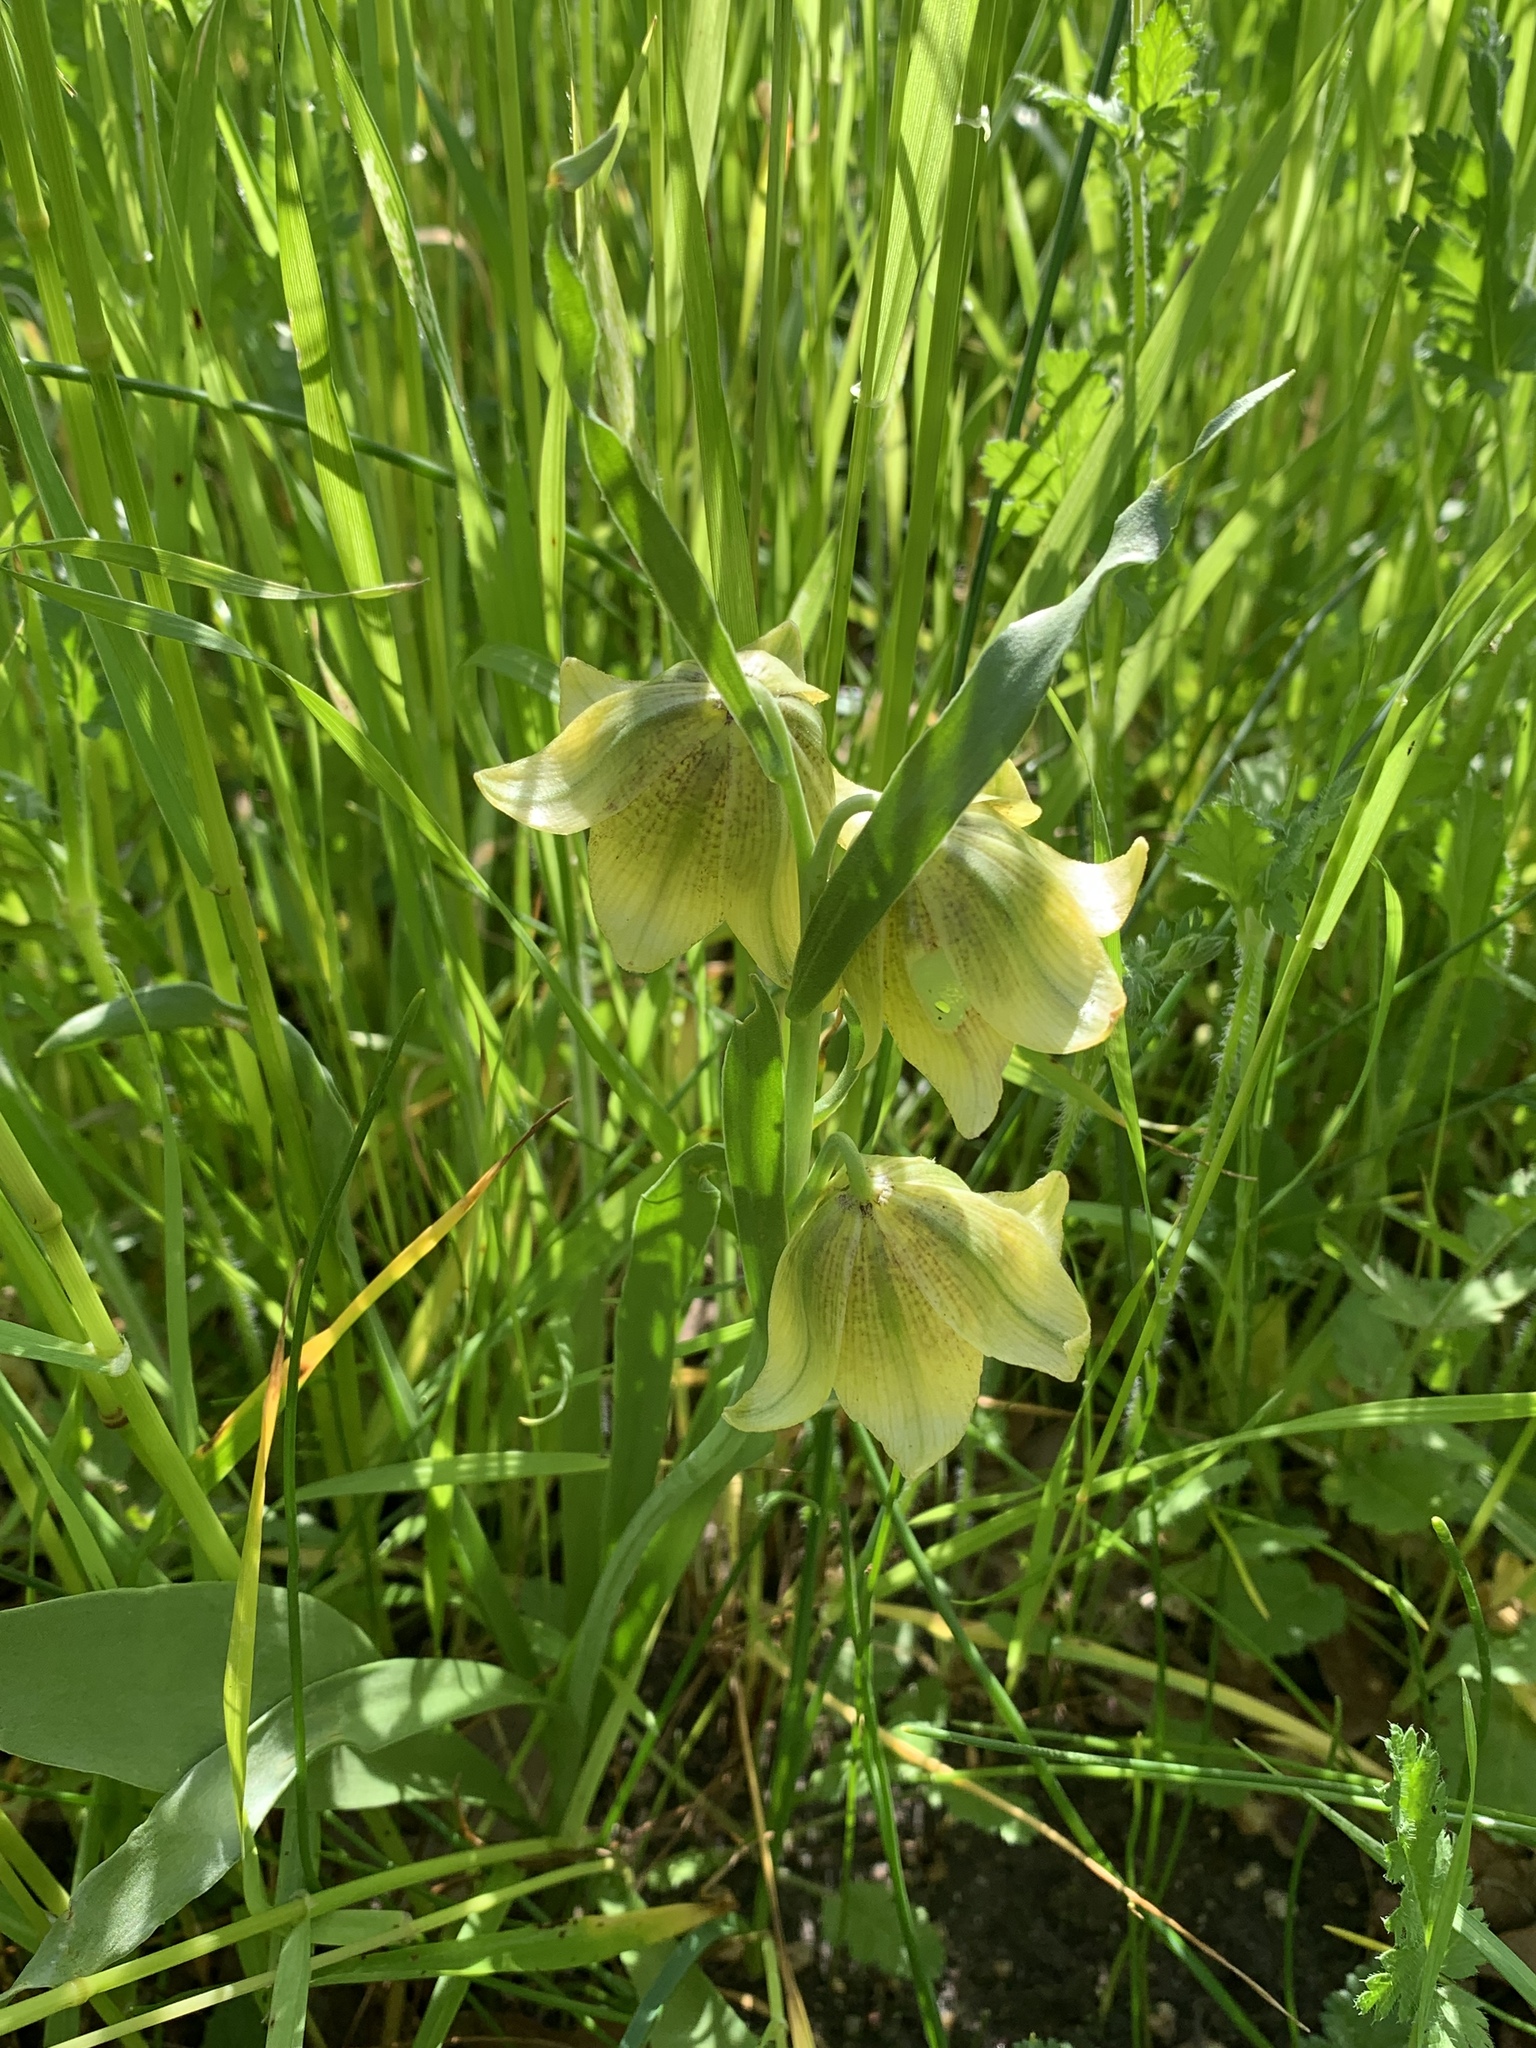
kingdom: Plantae
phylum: Tracheophyta
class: Liliopsida
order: Liliales
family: Liliaceae
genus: Fritillaria
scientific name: Fritillaria agrestis
